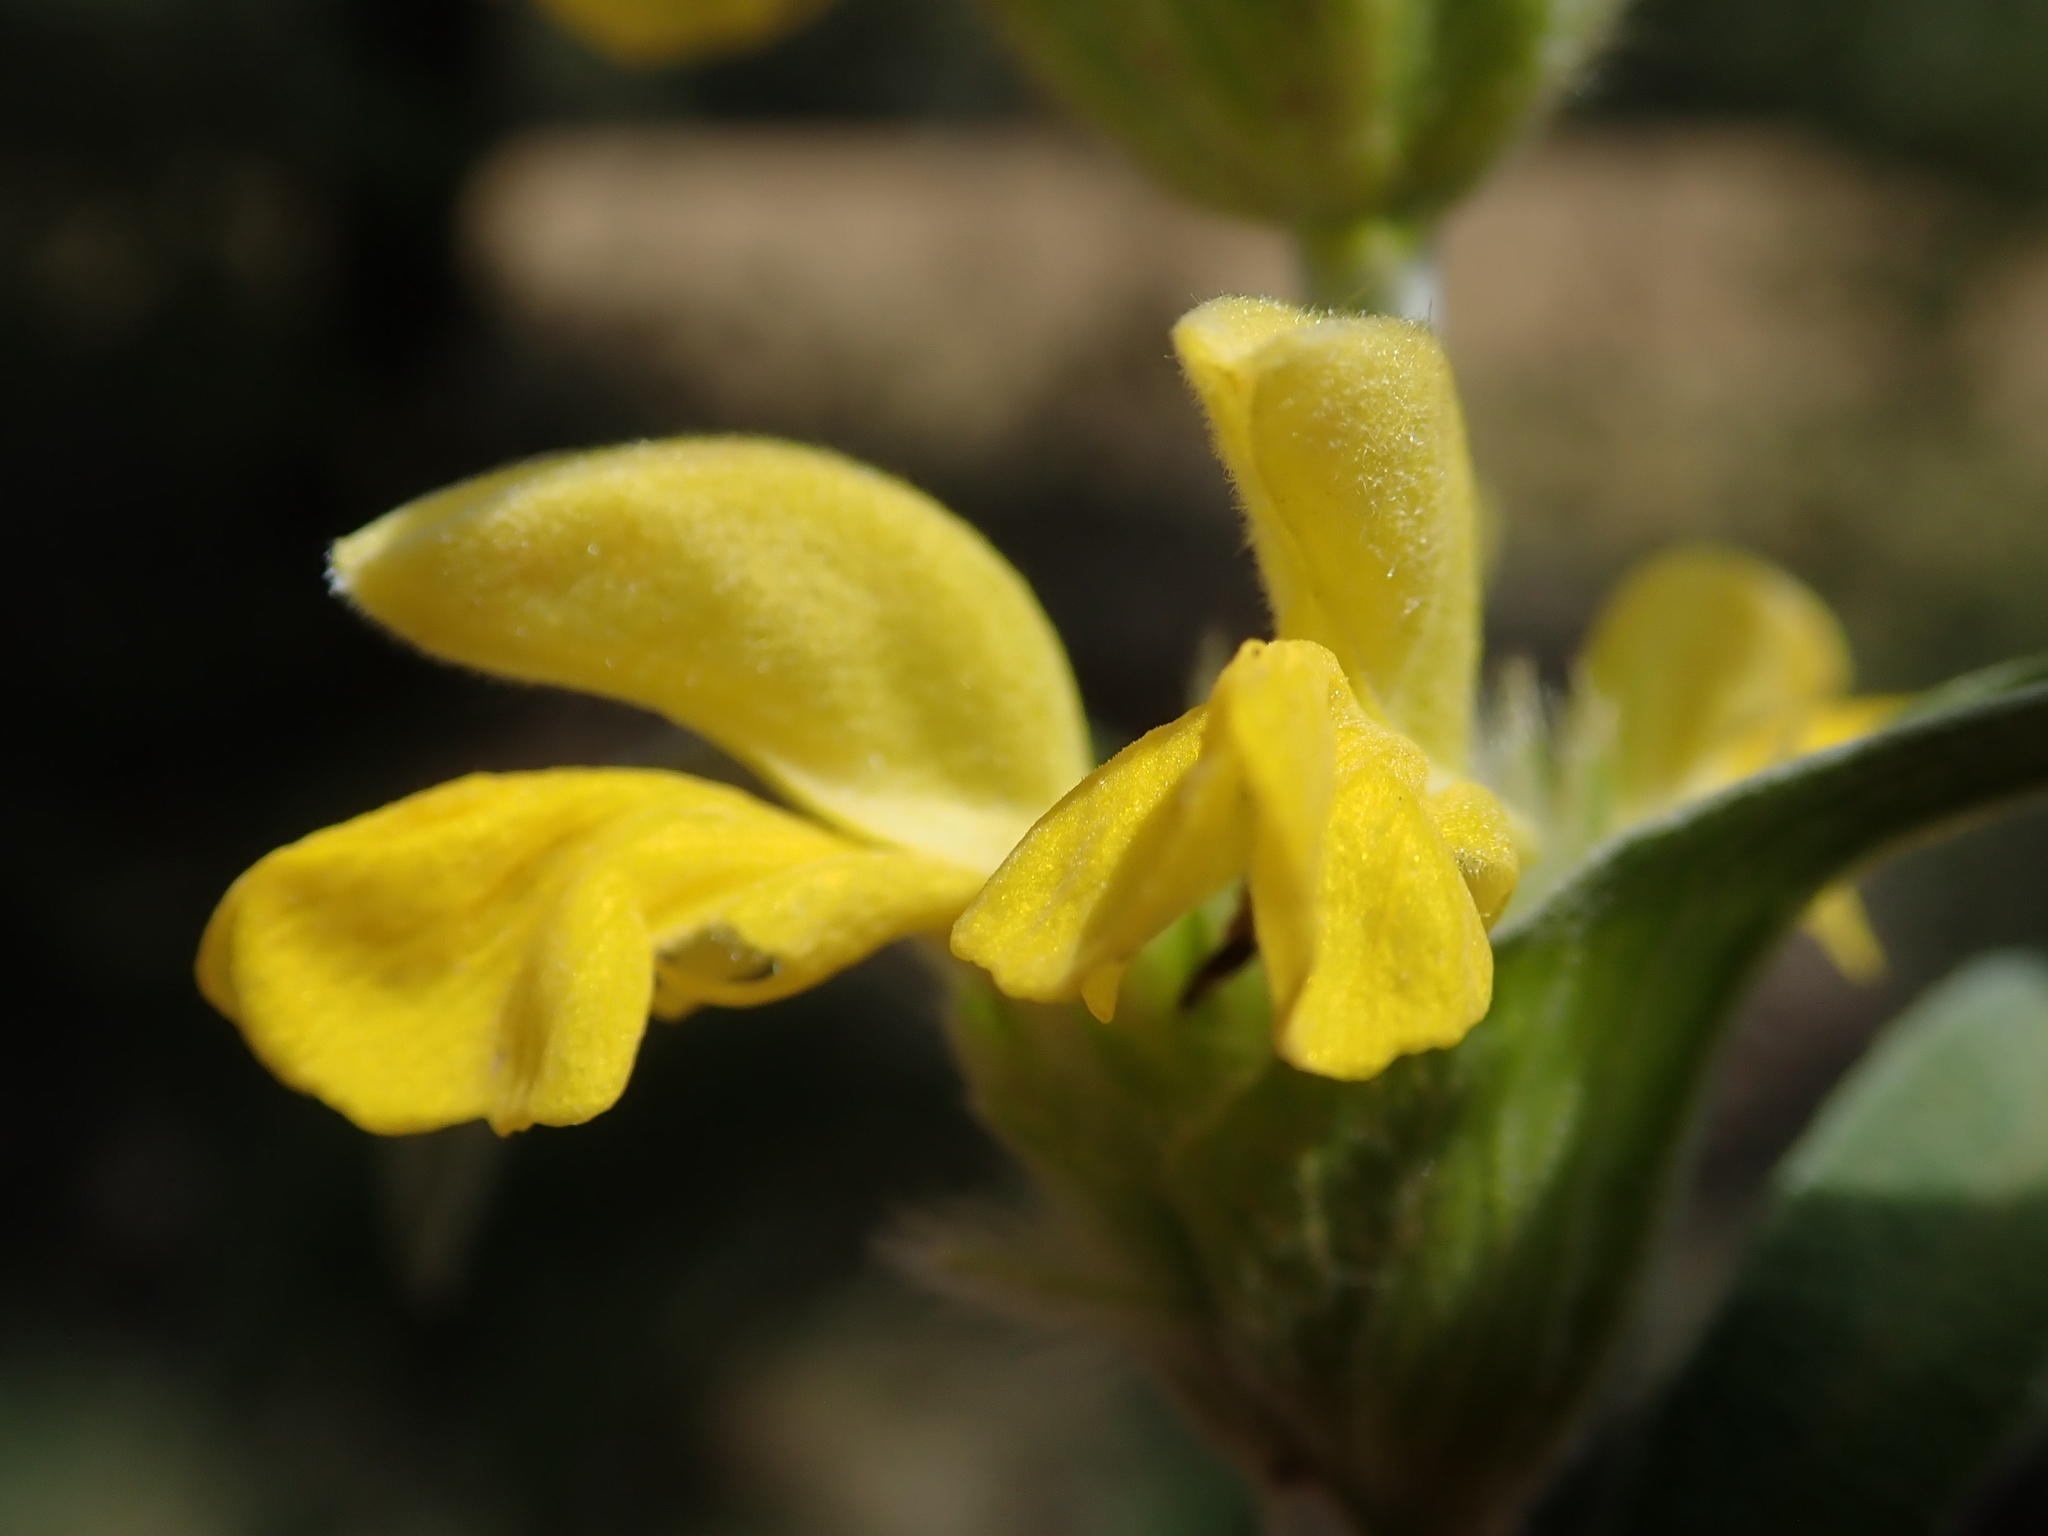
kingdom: Plantae
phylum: Tracheophyta
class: Magnoliopsida
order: Lamiales
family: Lamiaceae
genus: Phlomis
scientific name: Phlomis lychnitis
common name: Lampwickplant
